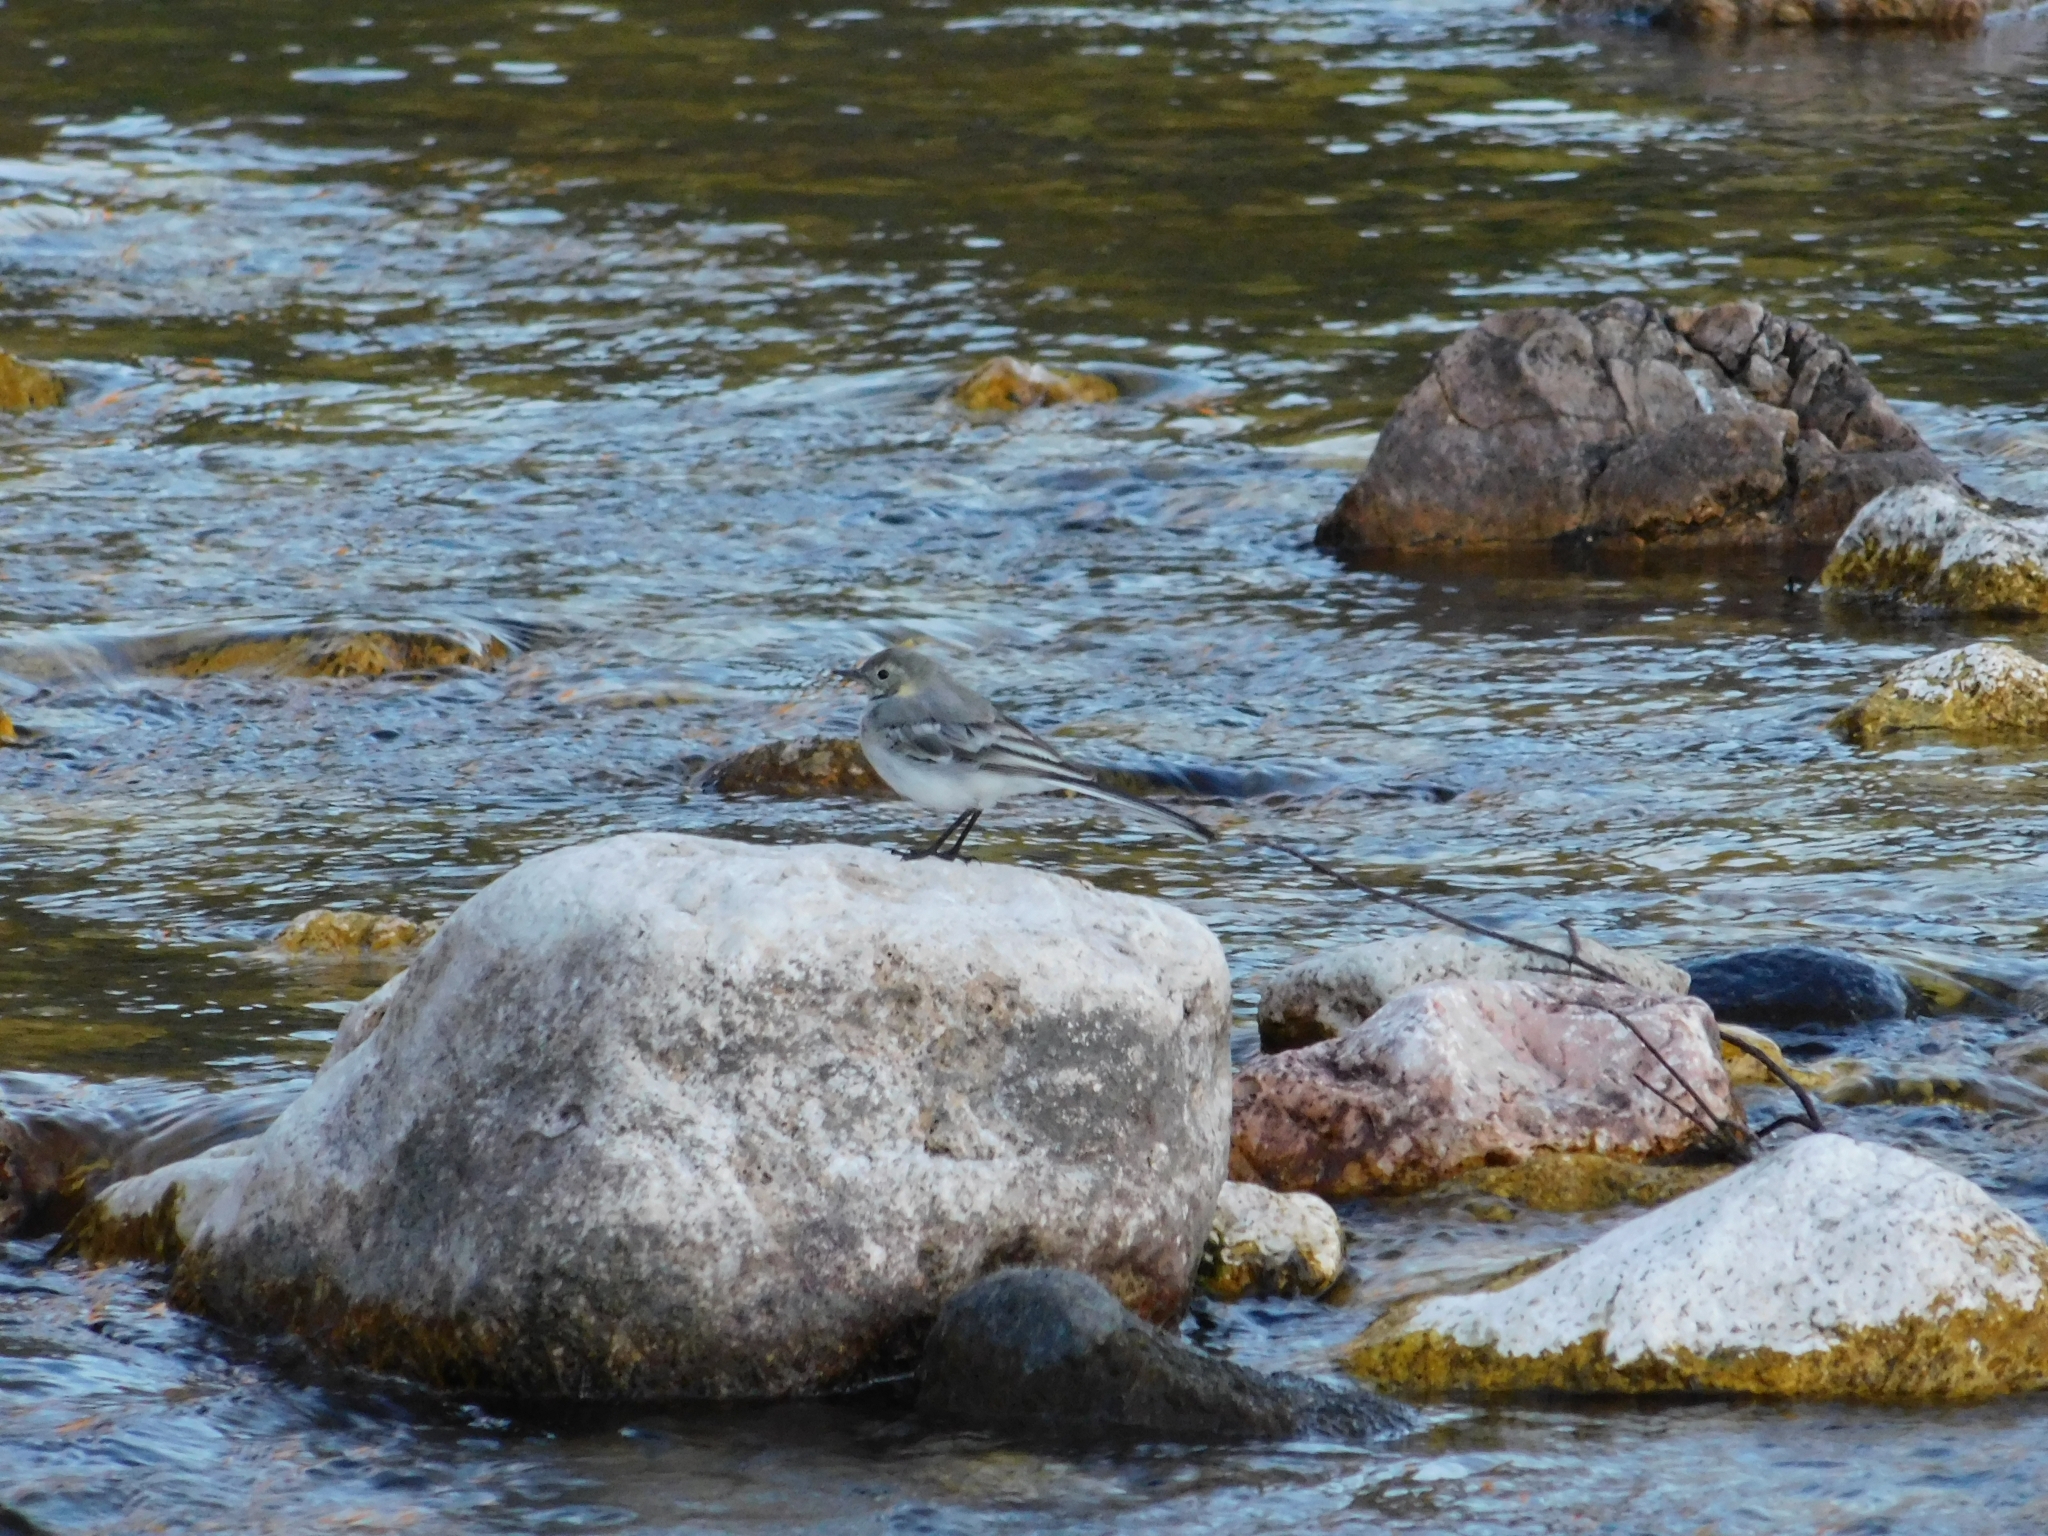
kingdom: Animalia
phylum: Chordata
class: Aves
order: Passeriformes
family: Motacillidae
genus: Motacilla
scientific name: Motacilla alba
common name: White wagtail
